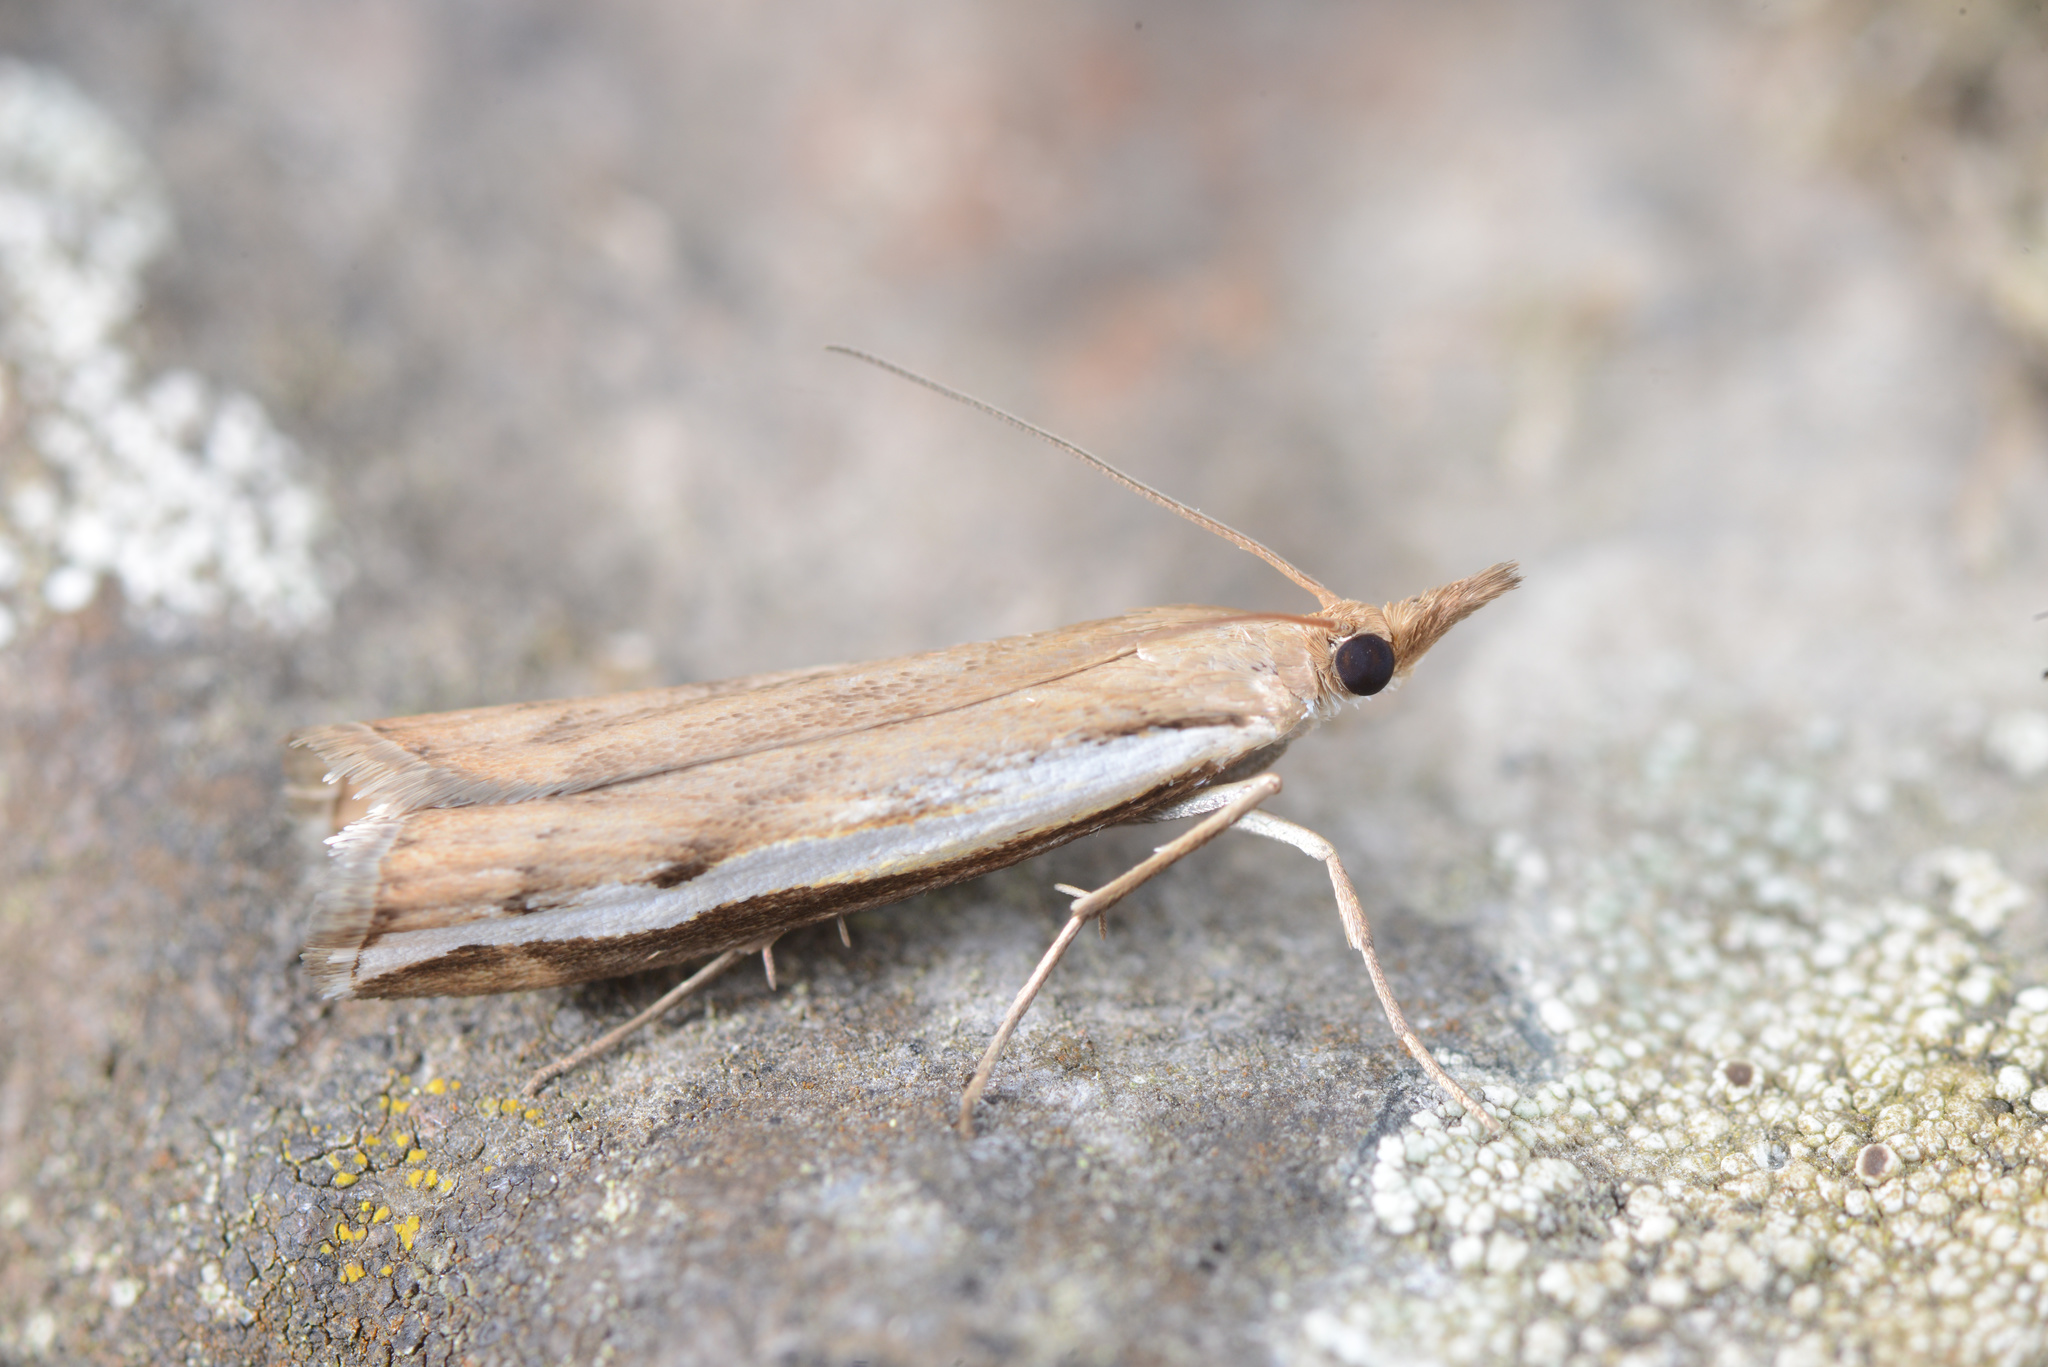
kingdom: Animalia
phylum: Arthropoda
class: Insecta
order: Lepidoptera
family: Crambidae
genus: Orocrambus
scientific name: Orocrambus flexuosellus
